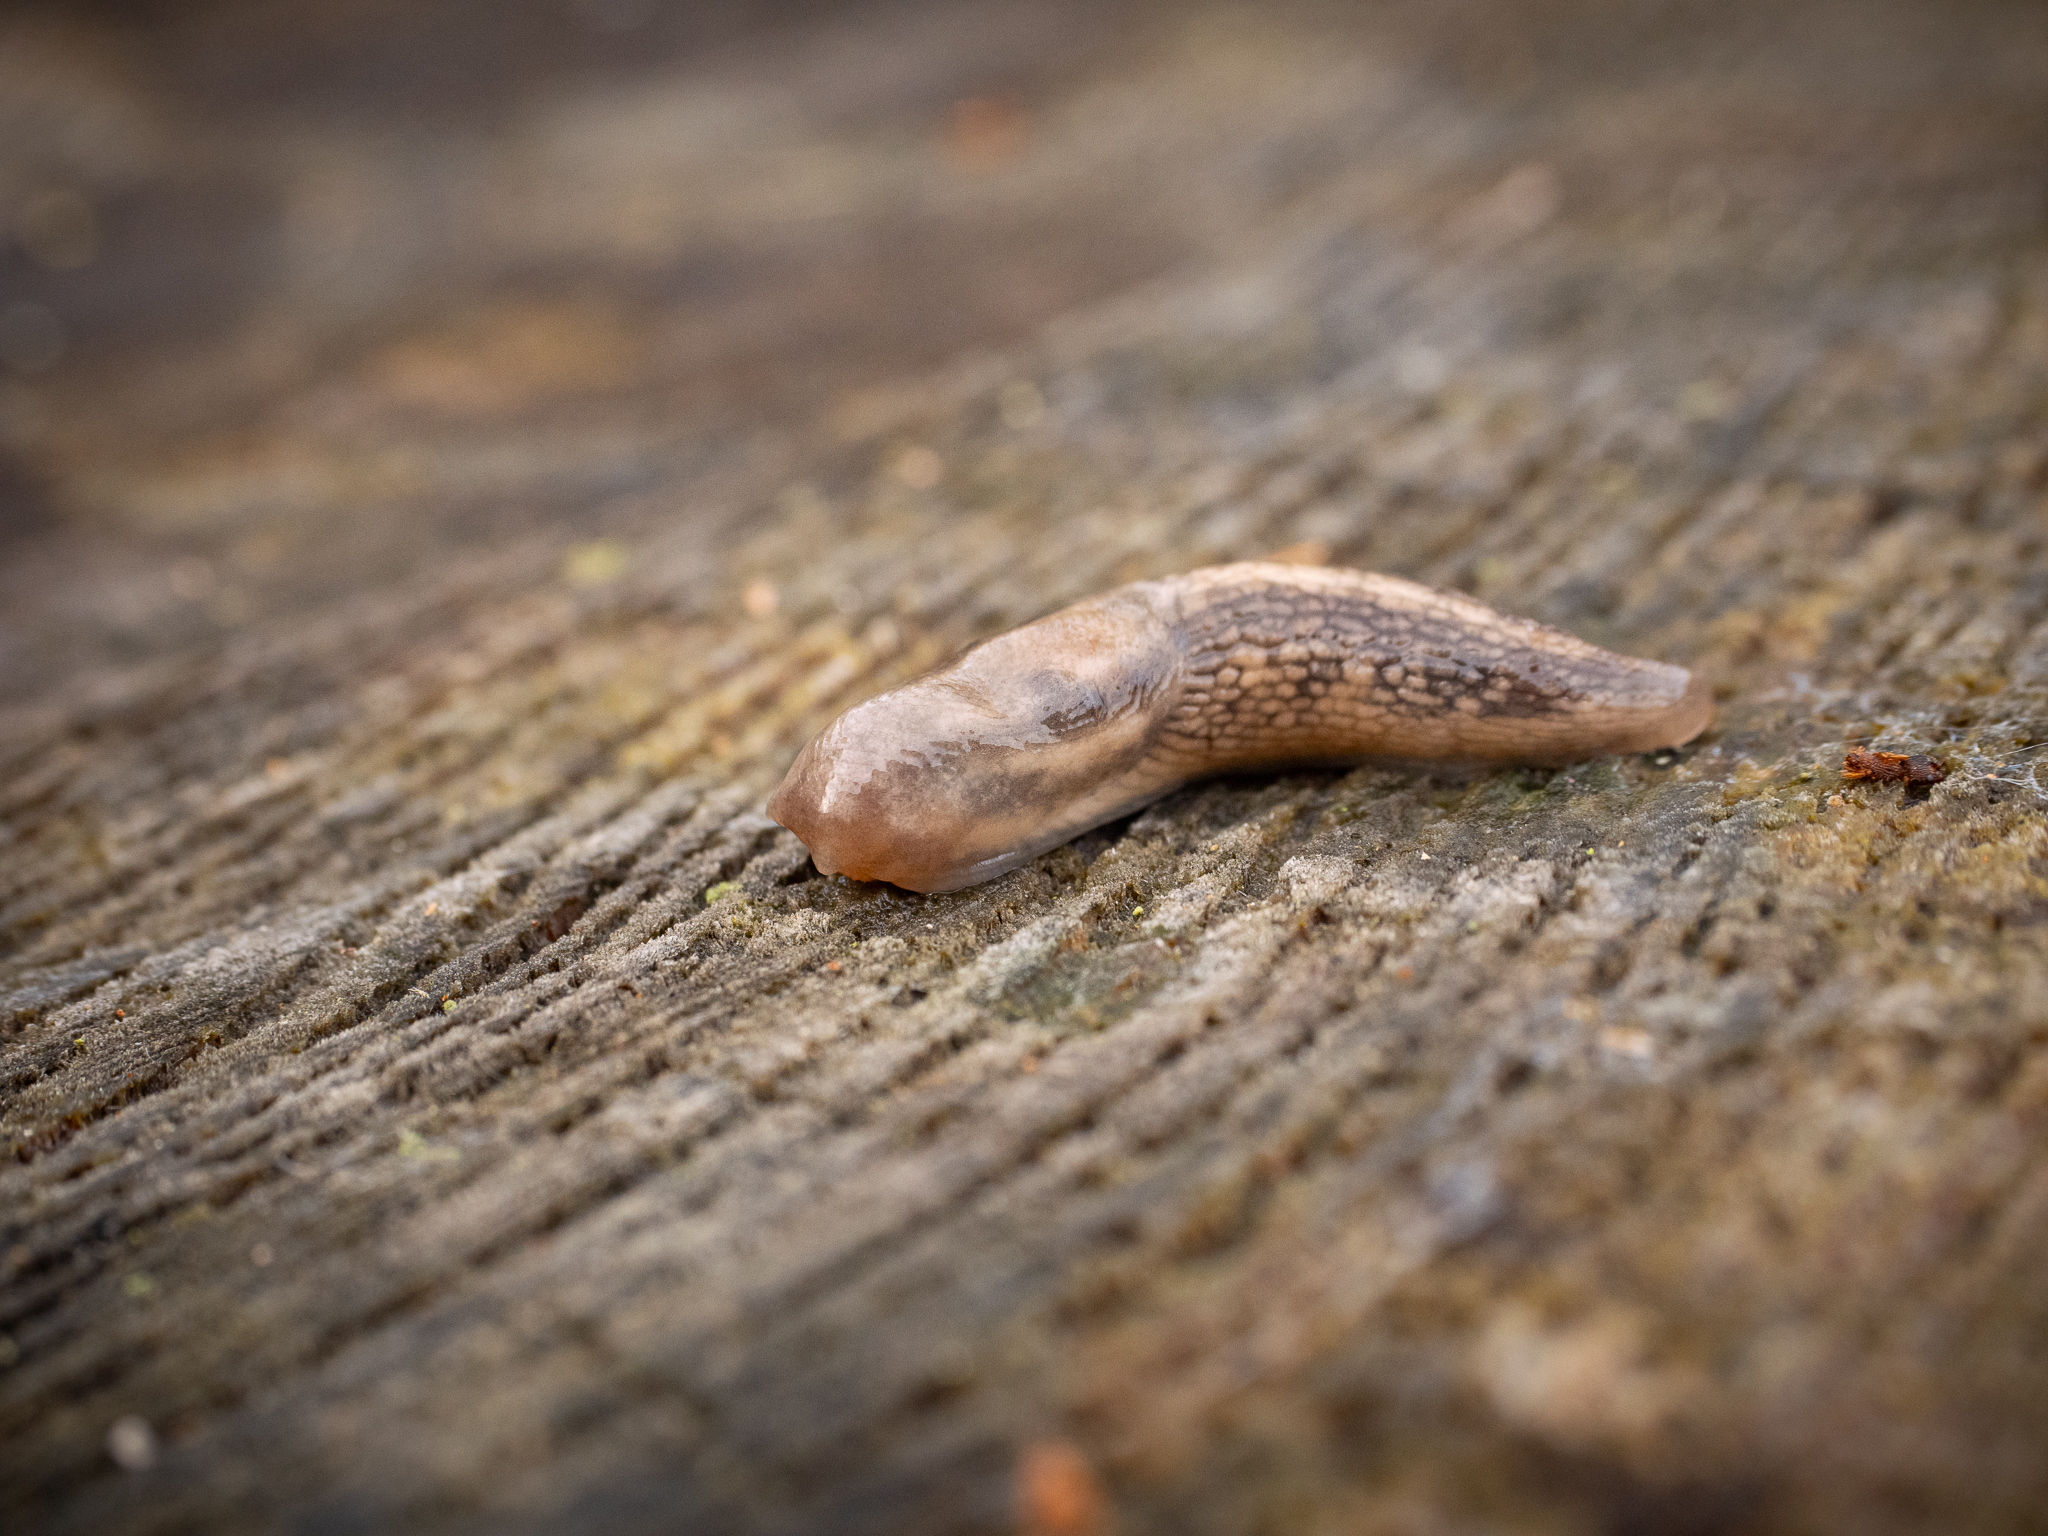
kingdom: Animalia
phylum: Mollusca
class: Gastropoda
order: Stylommatophora
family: Limacidae
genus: Lehmannia
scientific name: Lehmannia marginata
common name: Tree slug
